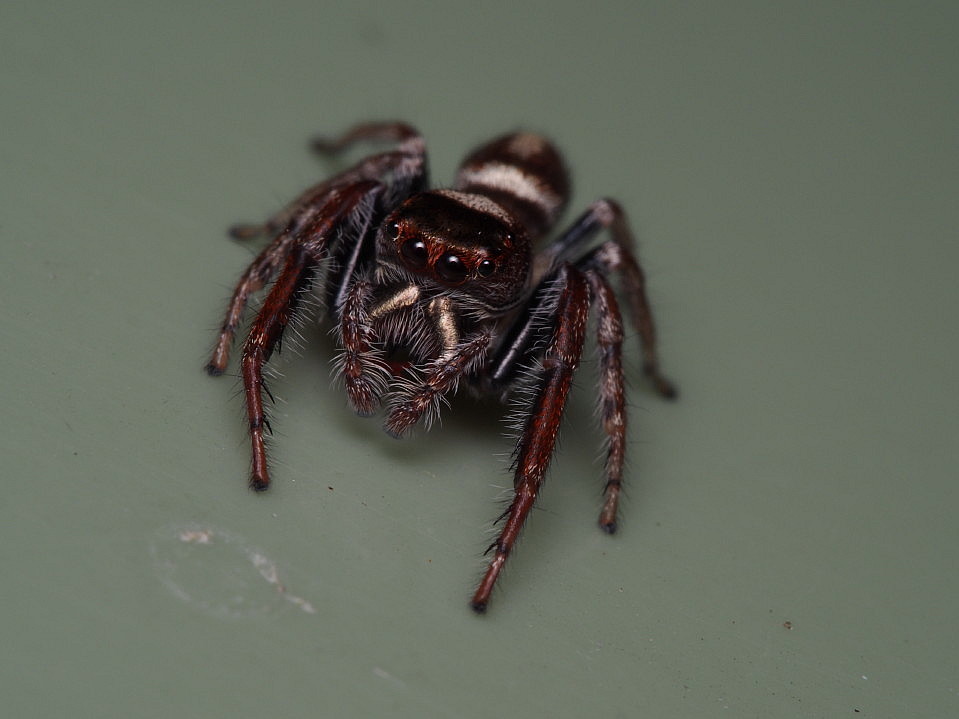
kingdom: Animalia
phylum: Arthropoda
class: Arachnida
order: Araneae
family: Salticidae
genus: Opisthoncus
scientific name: Opisthoncus polyphemus
